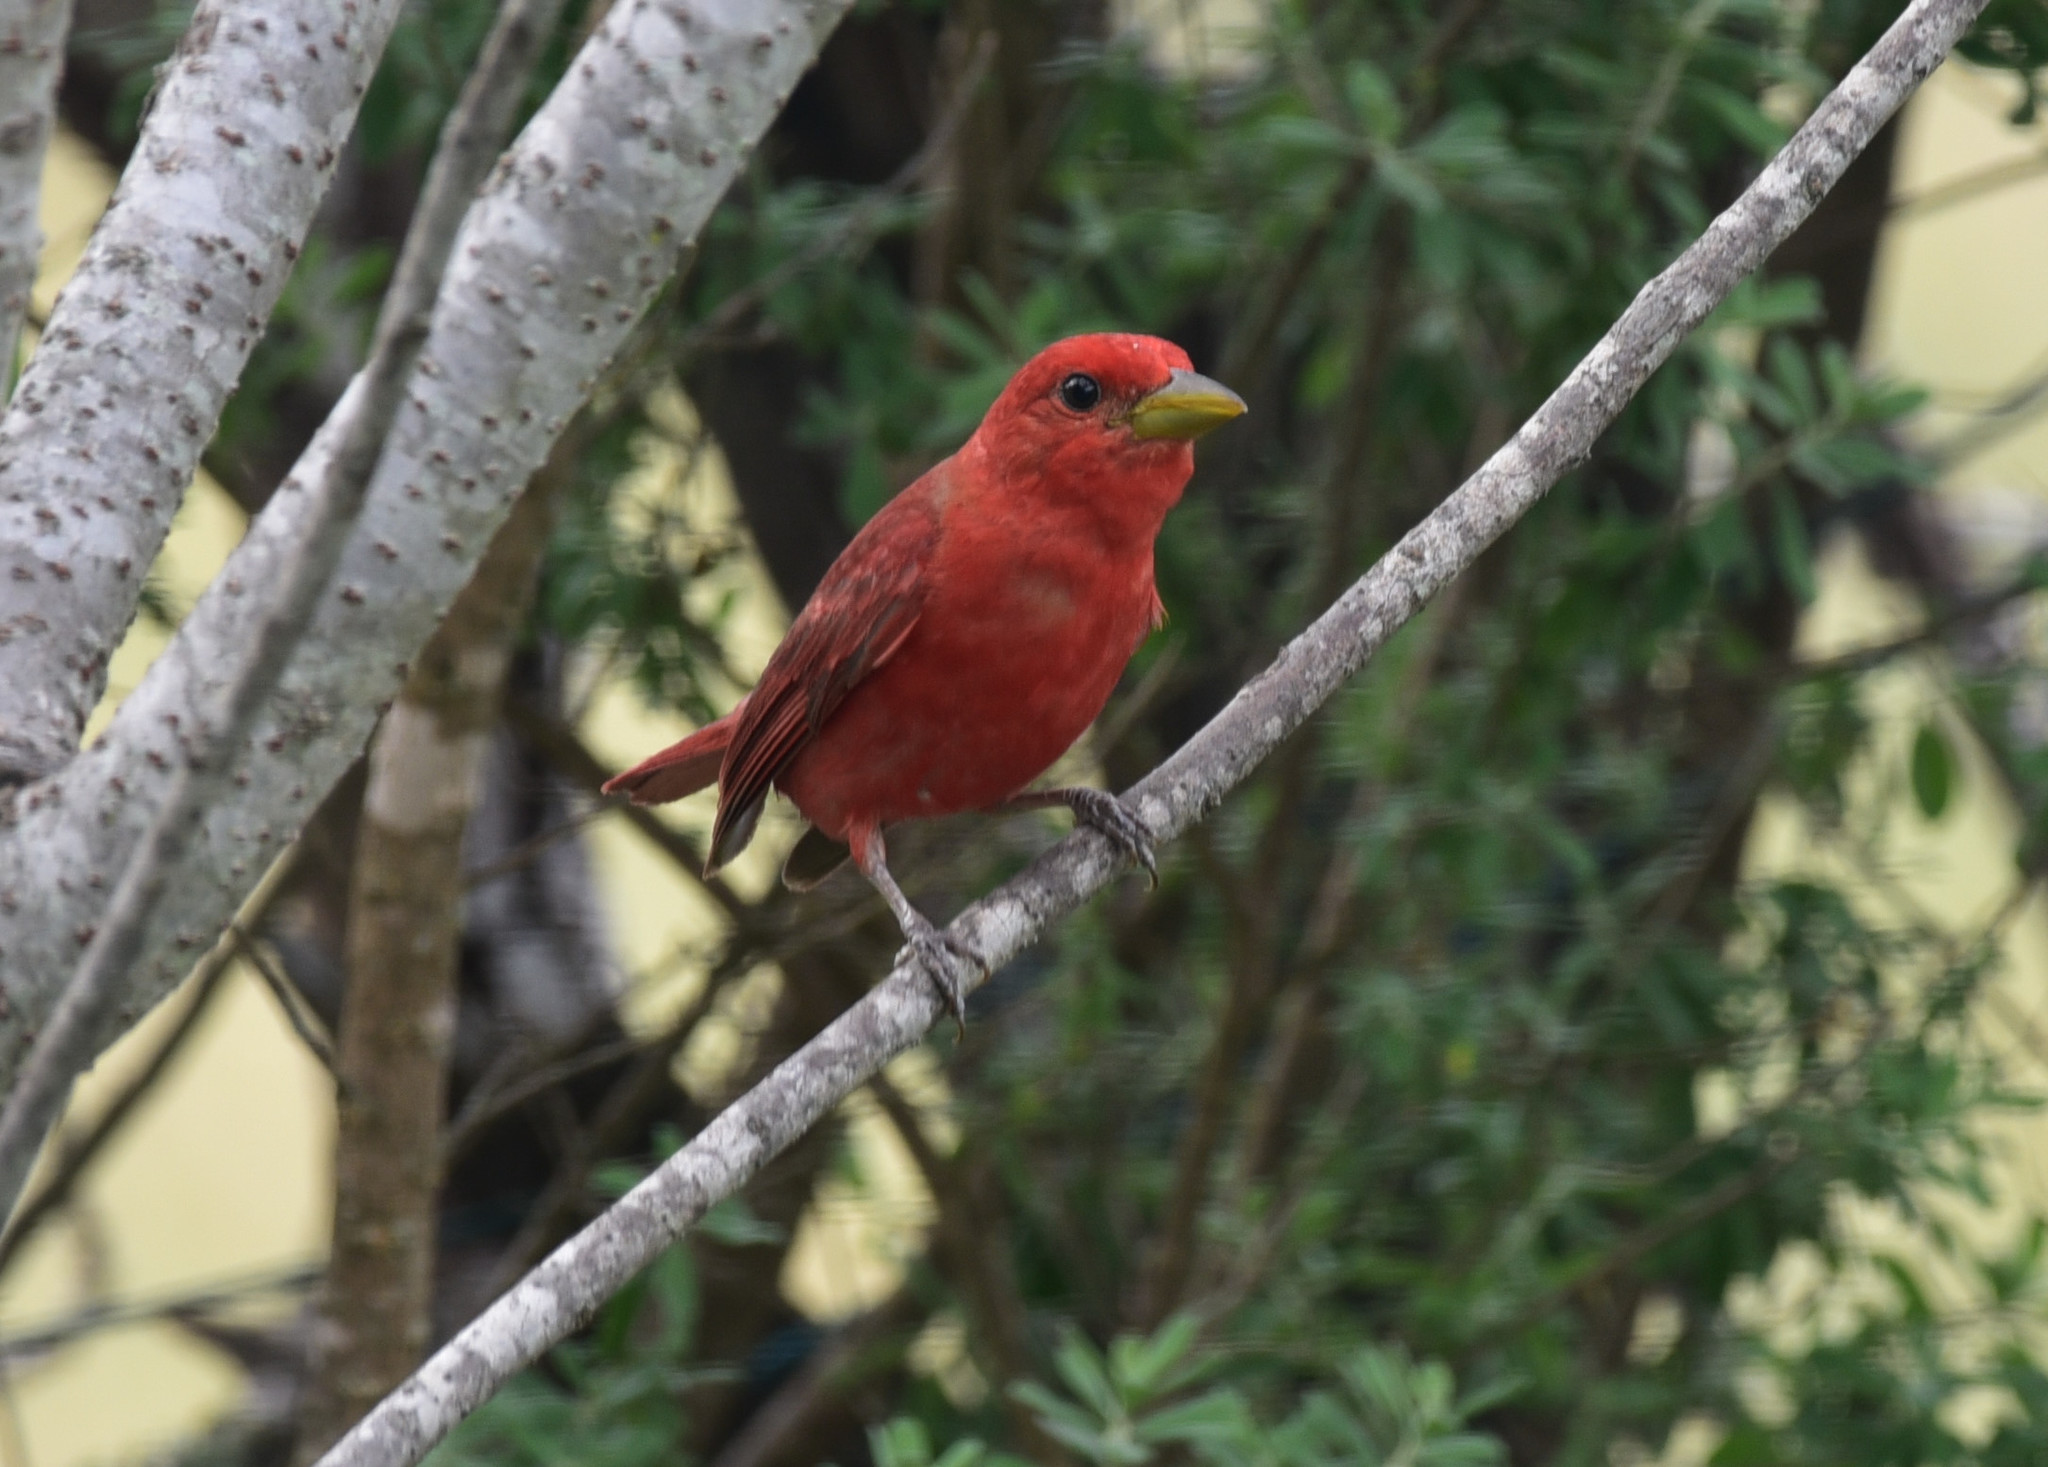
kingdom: Animalia
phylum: Chordata
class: Aves
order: Passeriformes
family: Cardinalidae
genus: Piranga
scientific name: Piranga rubra
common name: Summer tanager
